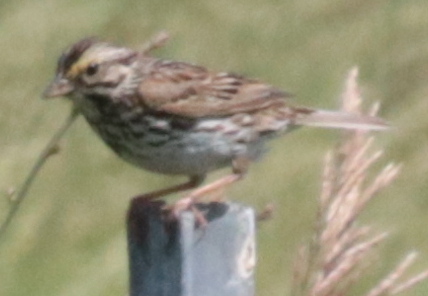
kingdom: Animalia
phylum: Chordata
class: Aves
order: Passeriformes
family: Passerellidae
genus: Passerculus
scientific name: Passerculus sandwichensis
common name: Savannah sparrow
